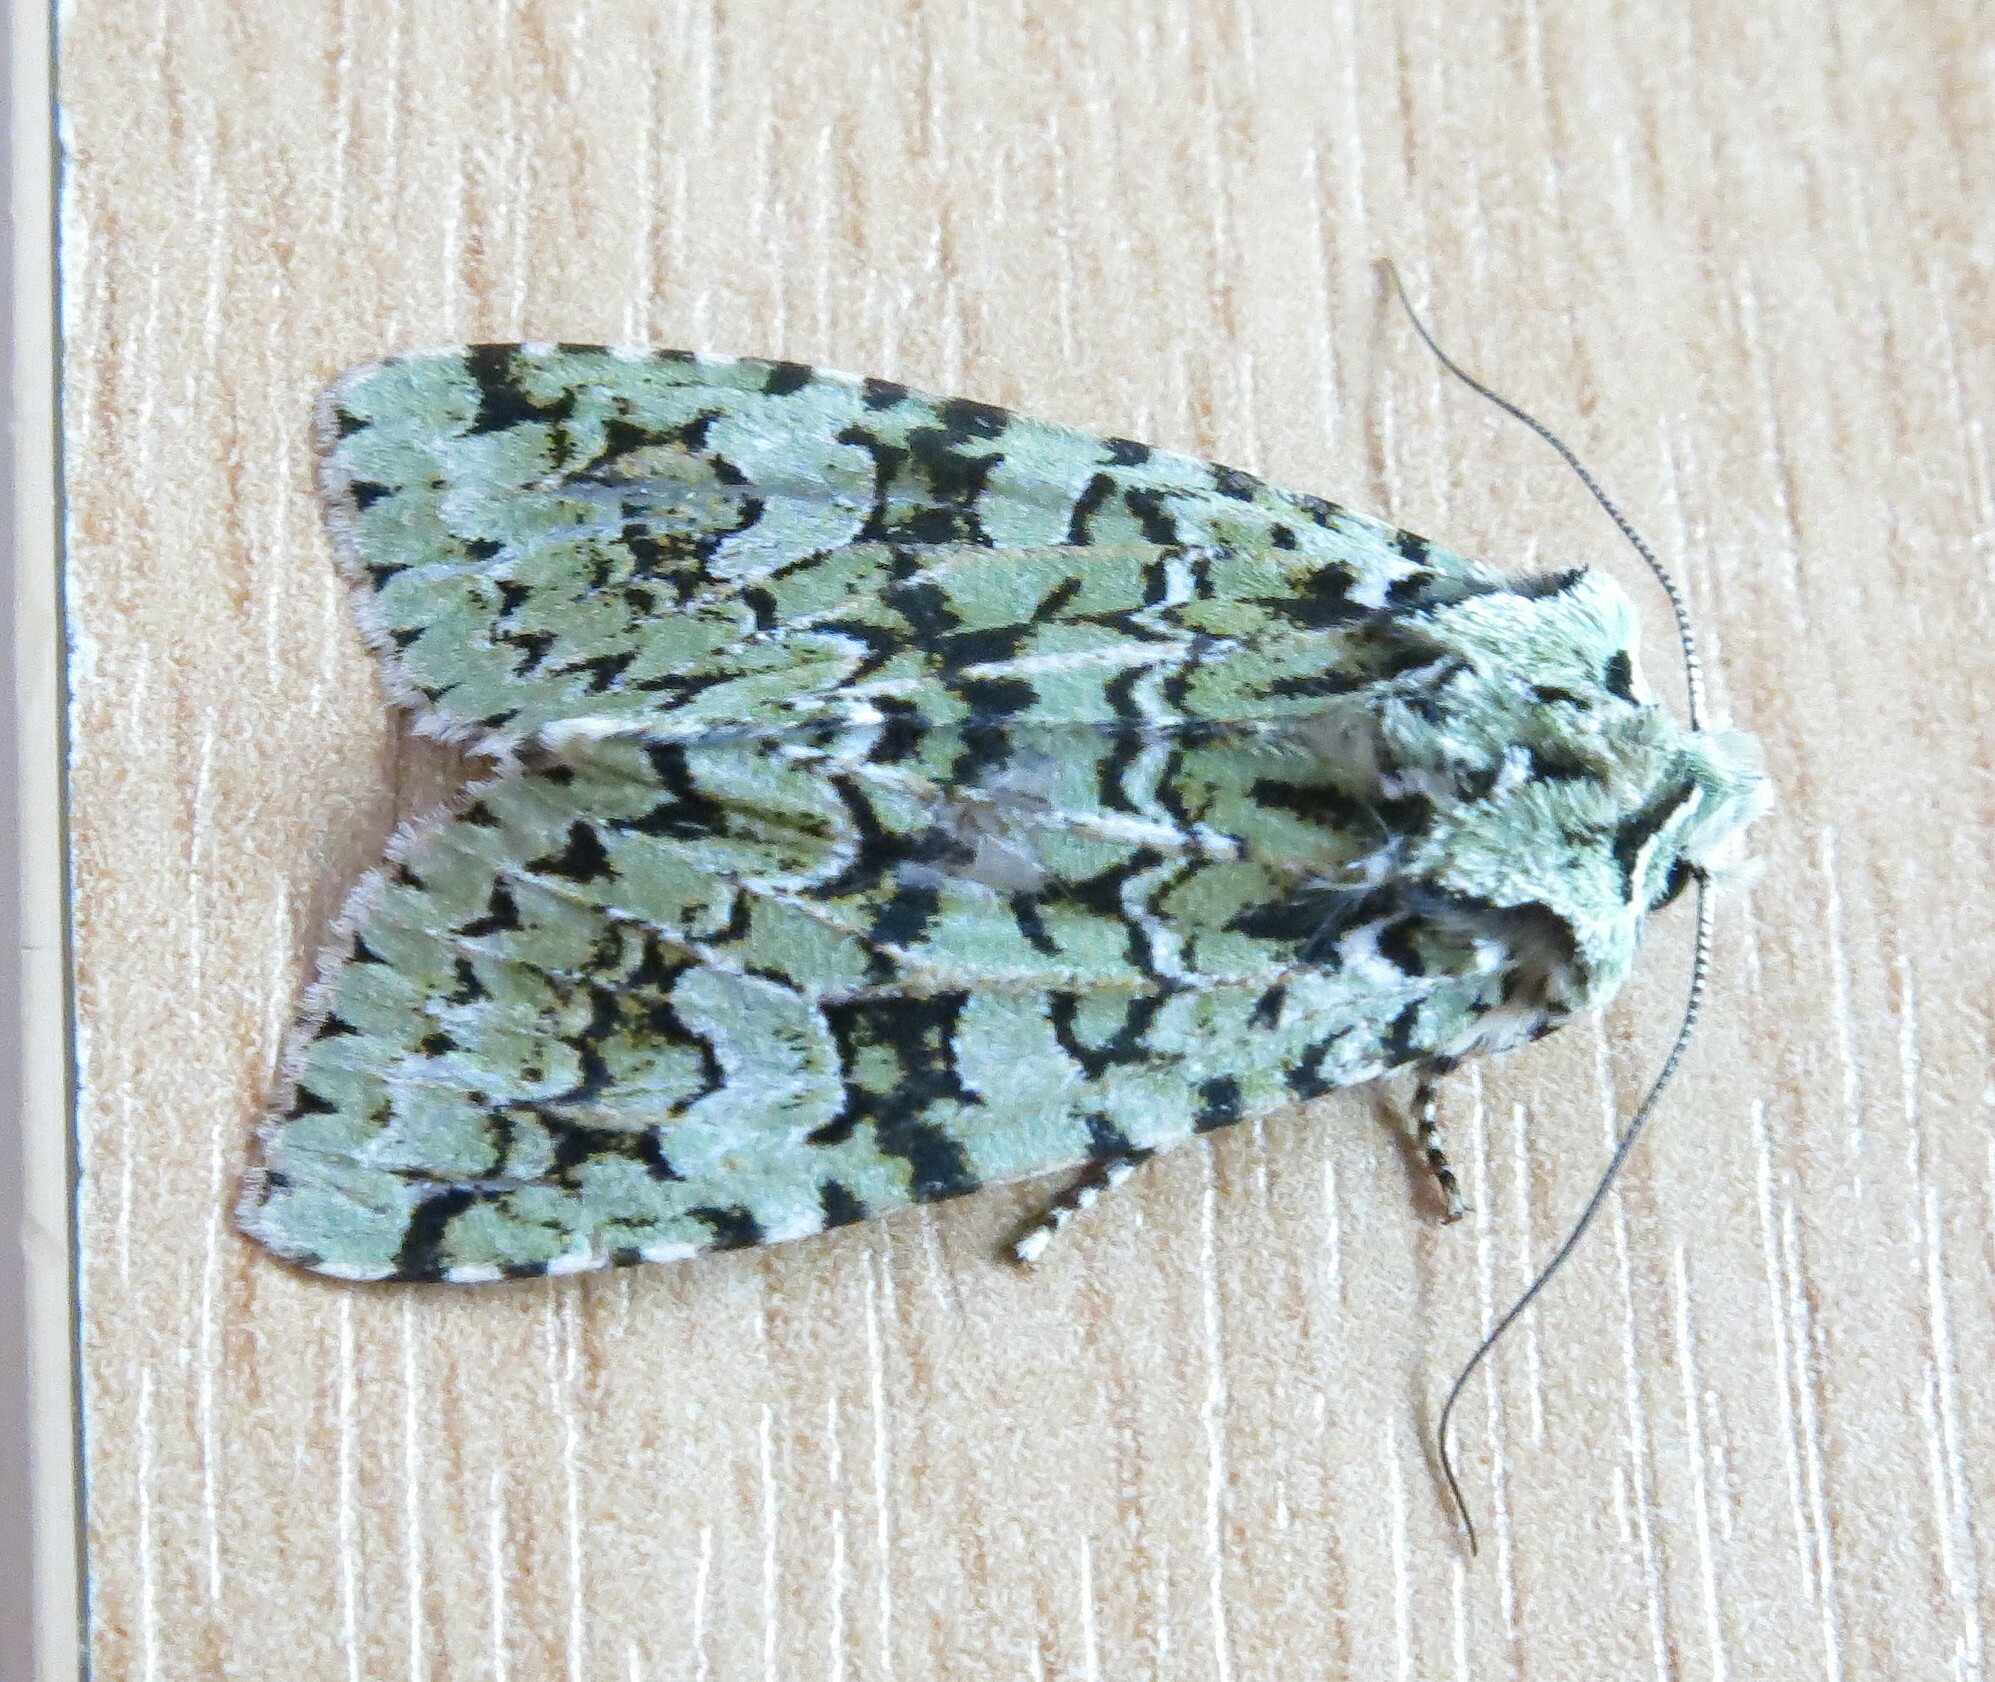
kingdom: Animalia
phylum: Arthropoda
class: Insecta
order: Lepidoptera
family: Noctuidae
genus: Griposia
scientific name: Griposia aprilina
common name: Merveille du jour
